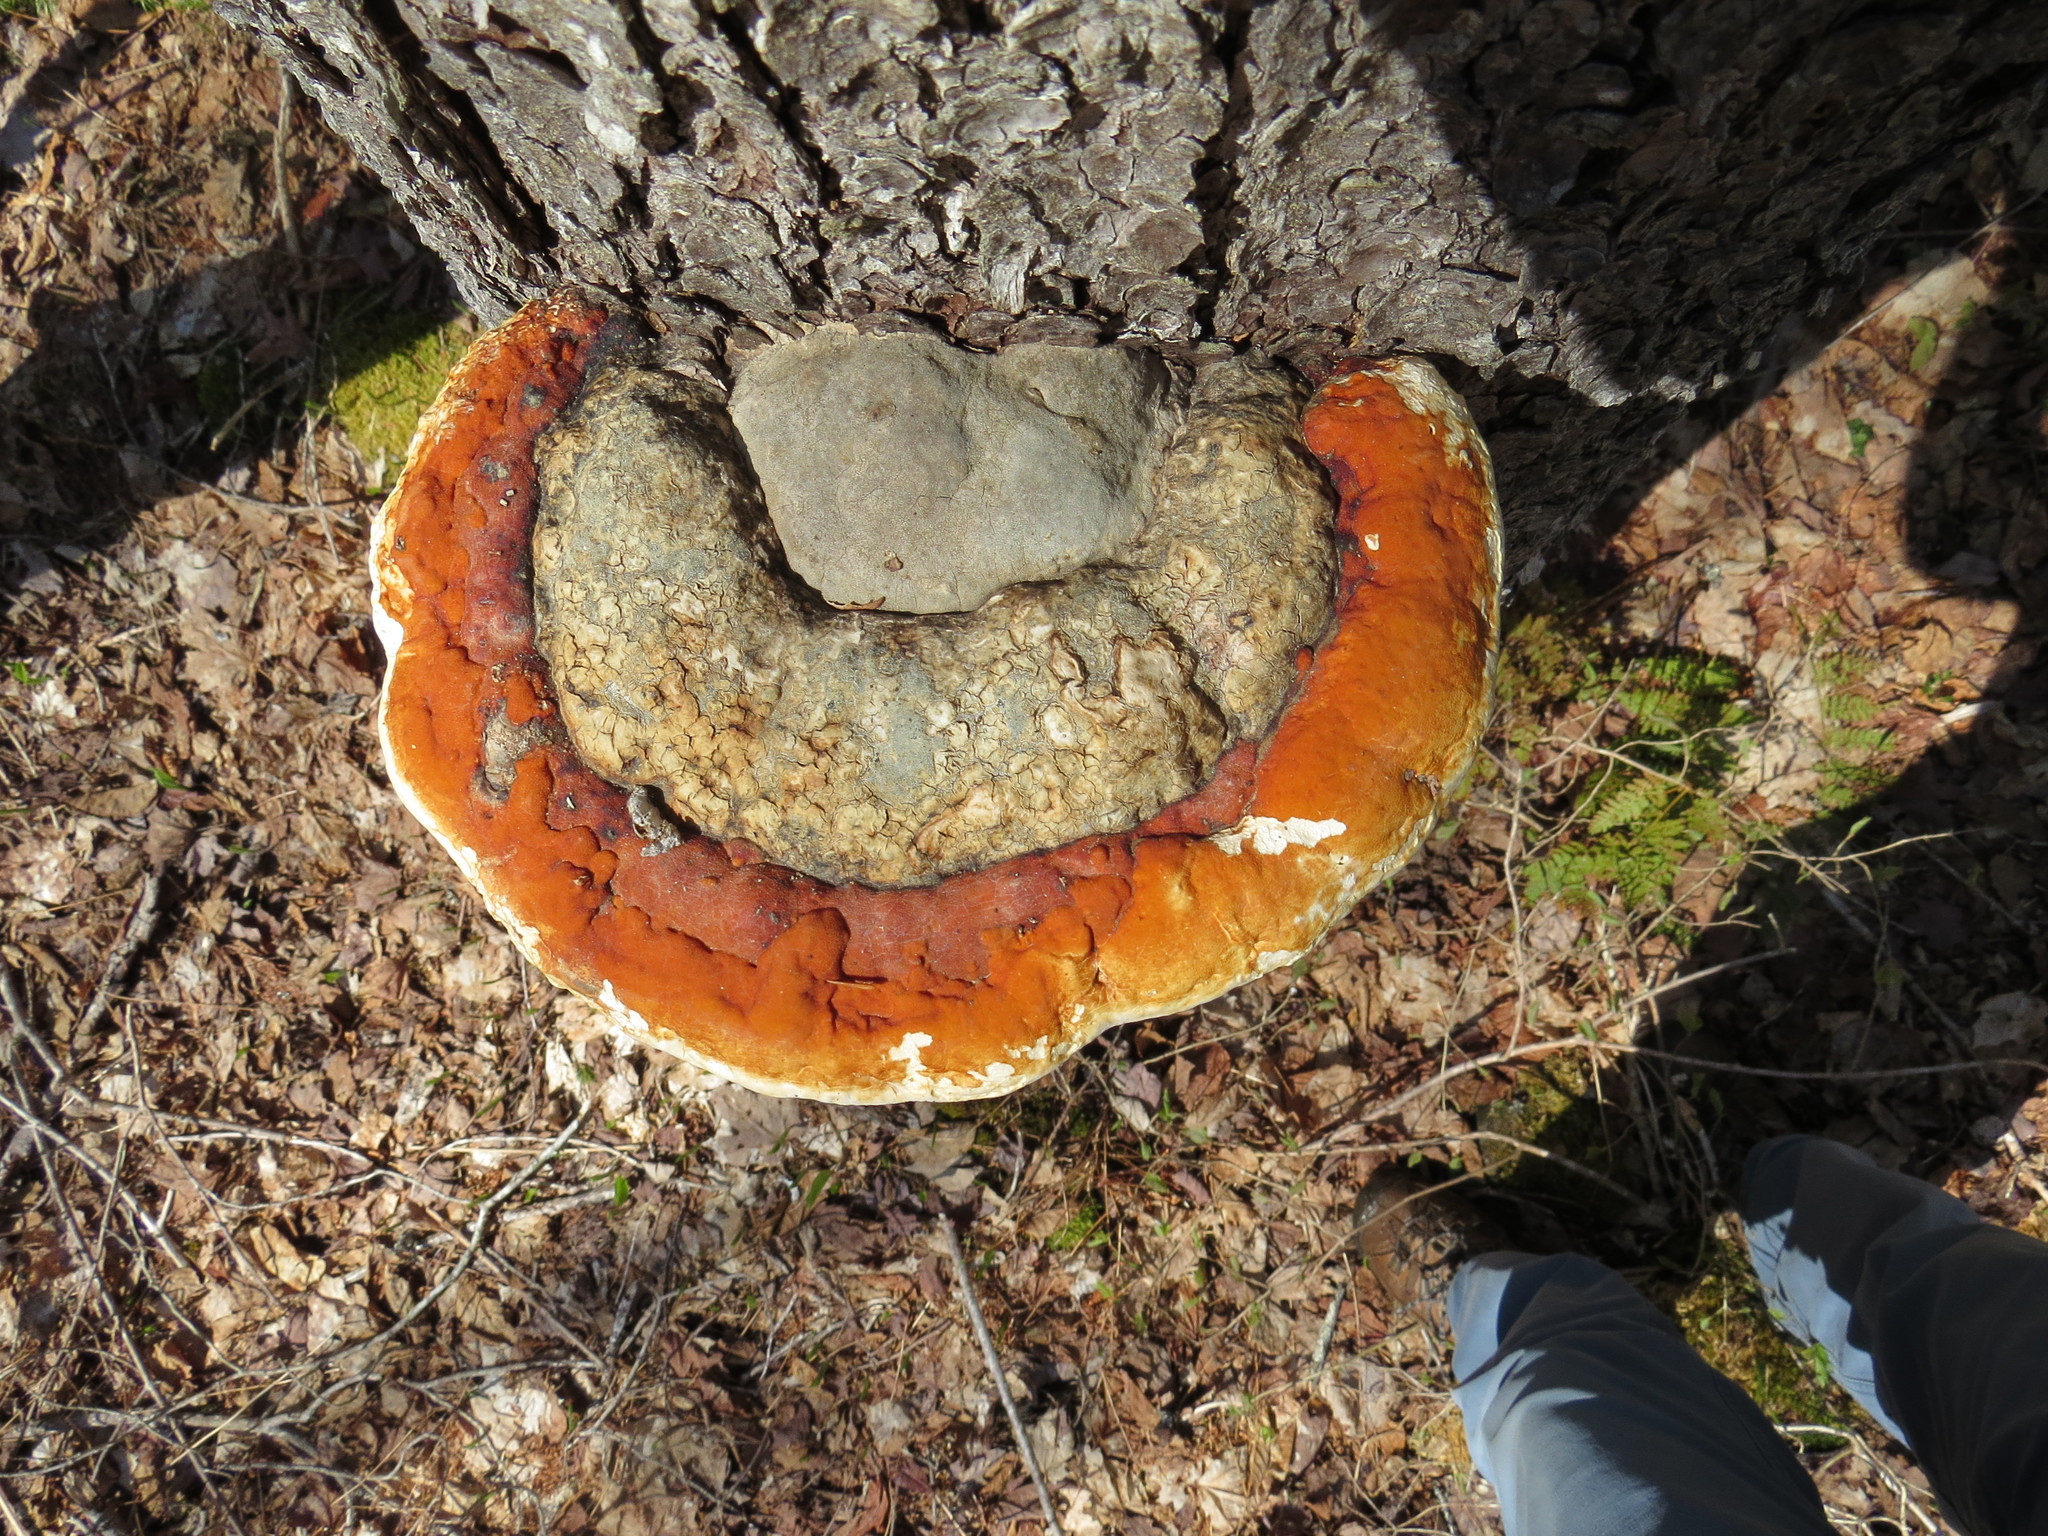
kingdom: Fungi
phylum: Basidiomycota
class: Agaricomycetes
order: Polyporales
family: Fomitopsidaceae
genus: Fomitopsis
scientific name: Fomitopsis mounceae
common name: Northern red belt
